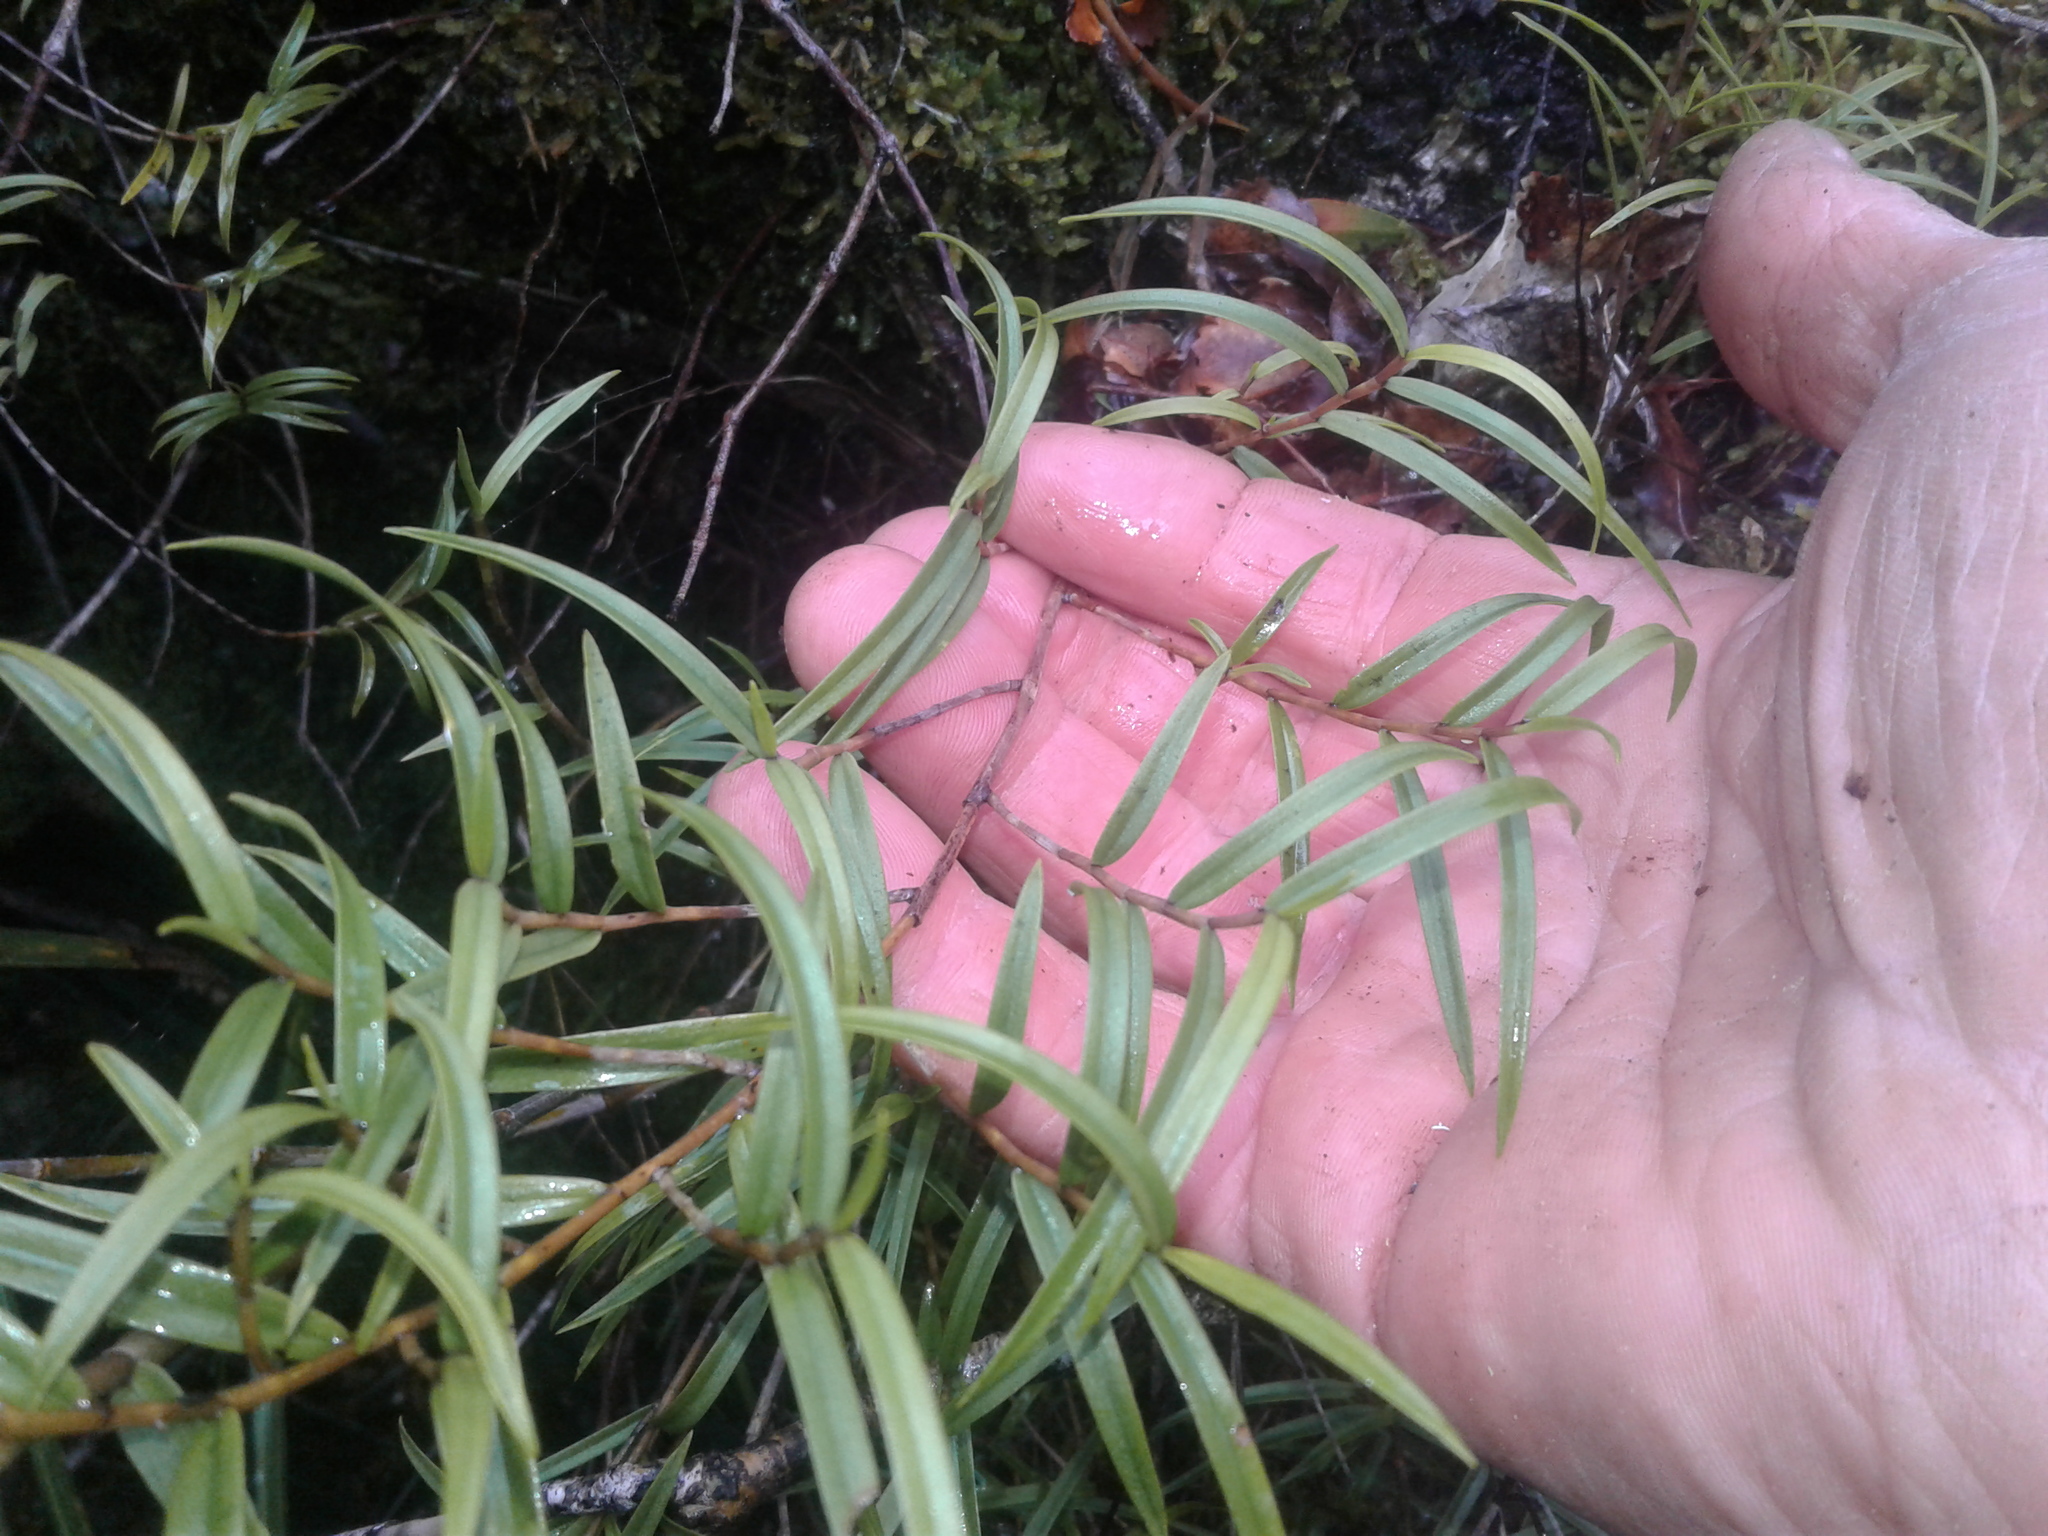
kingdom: Plantae
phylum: Tracheophyta
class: Liliopsida
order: Asparagales
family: Orchidaceae
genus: Dendrobium
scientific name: Dendrobium cunninghamii
